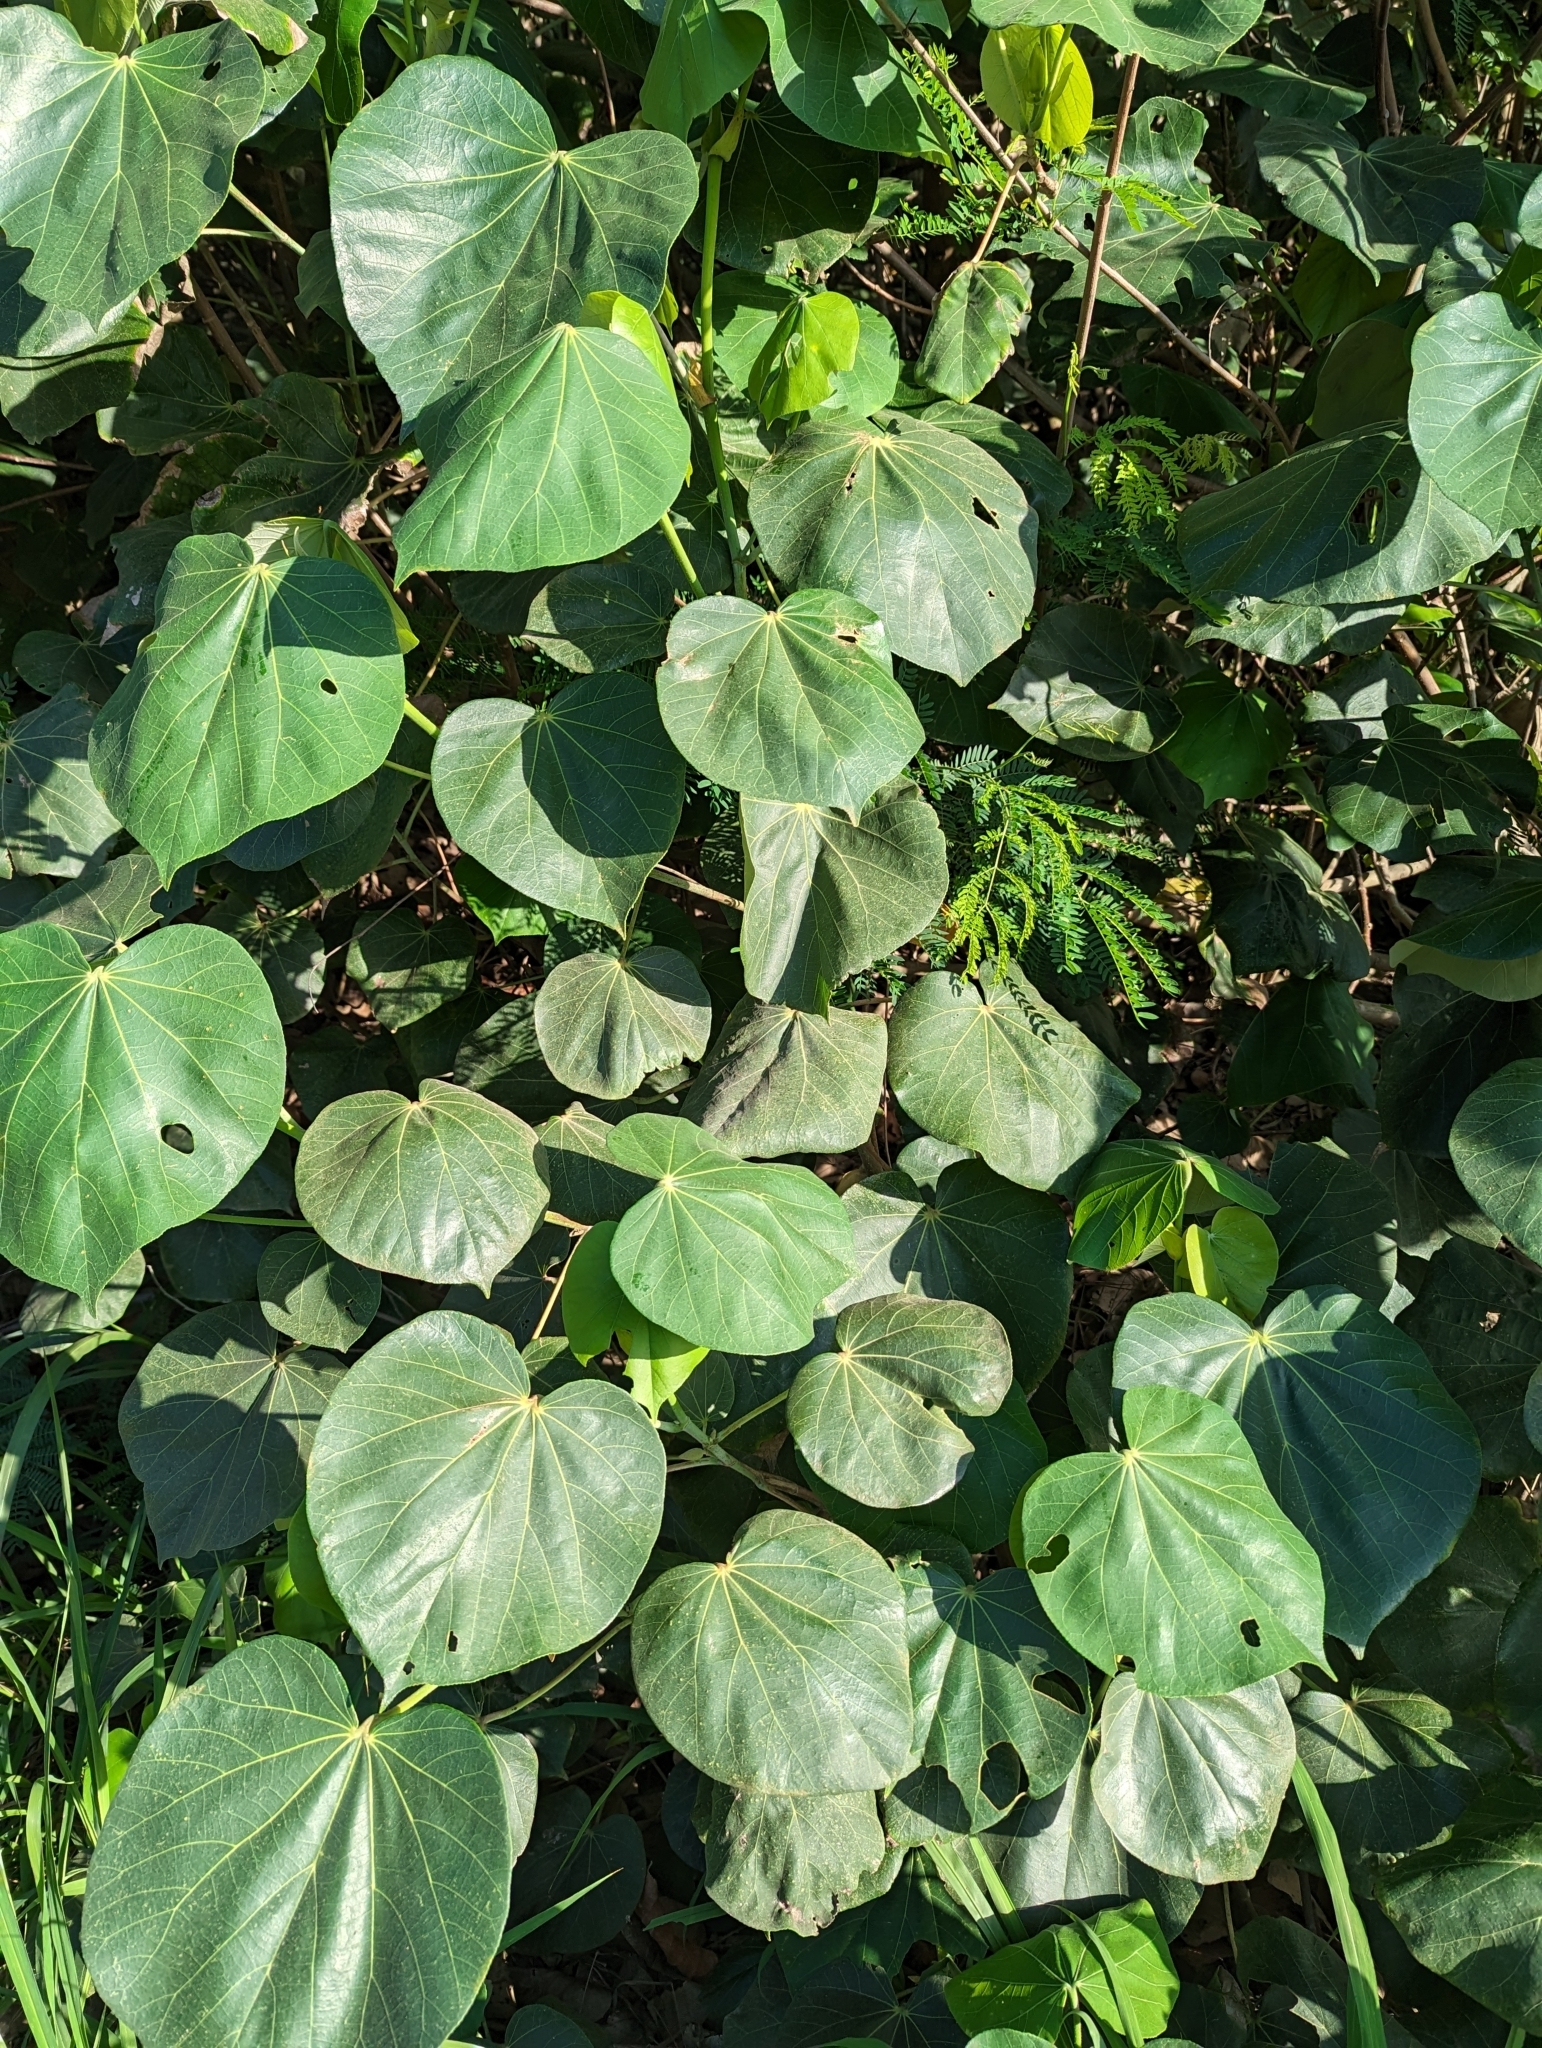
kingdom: Plantae
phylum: Tracheophyta
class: Magnoliopsida
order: Malvales
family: Malvaceae
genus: Talipariti
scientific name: Talipariti tiliaceum
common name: Sea hibiscus
